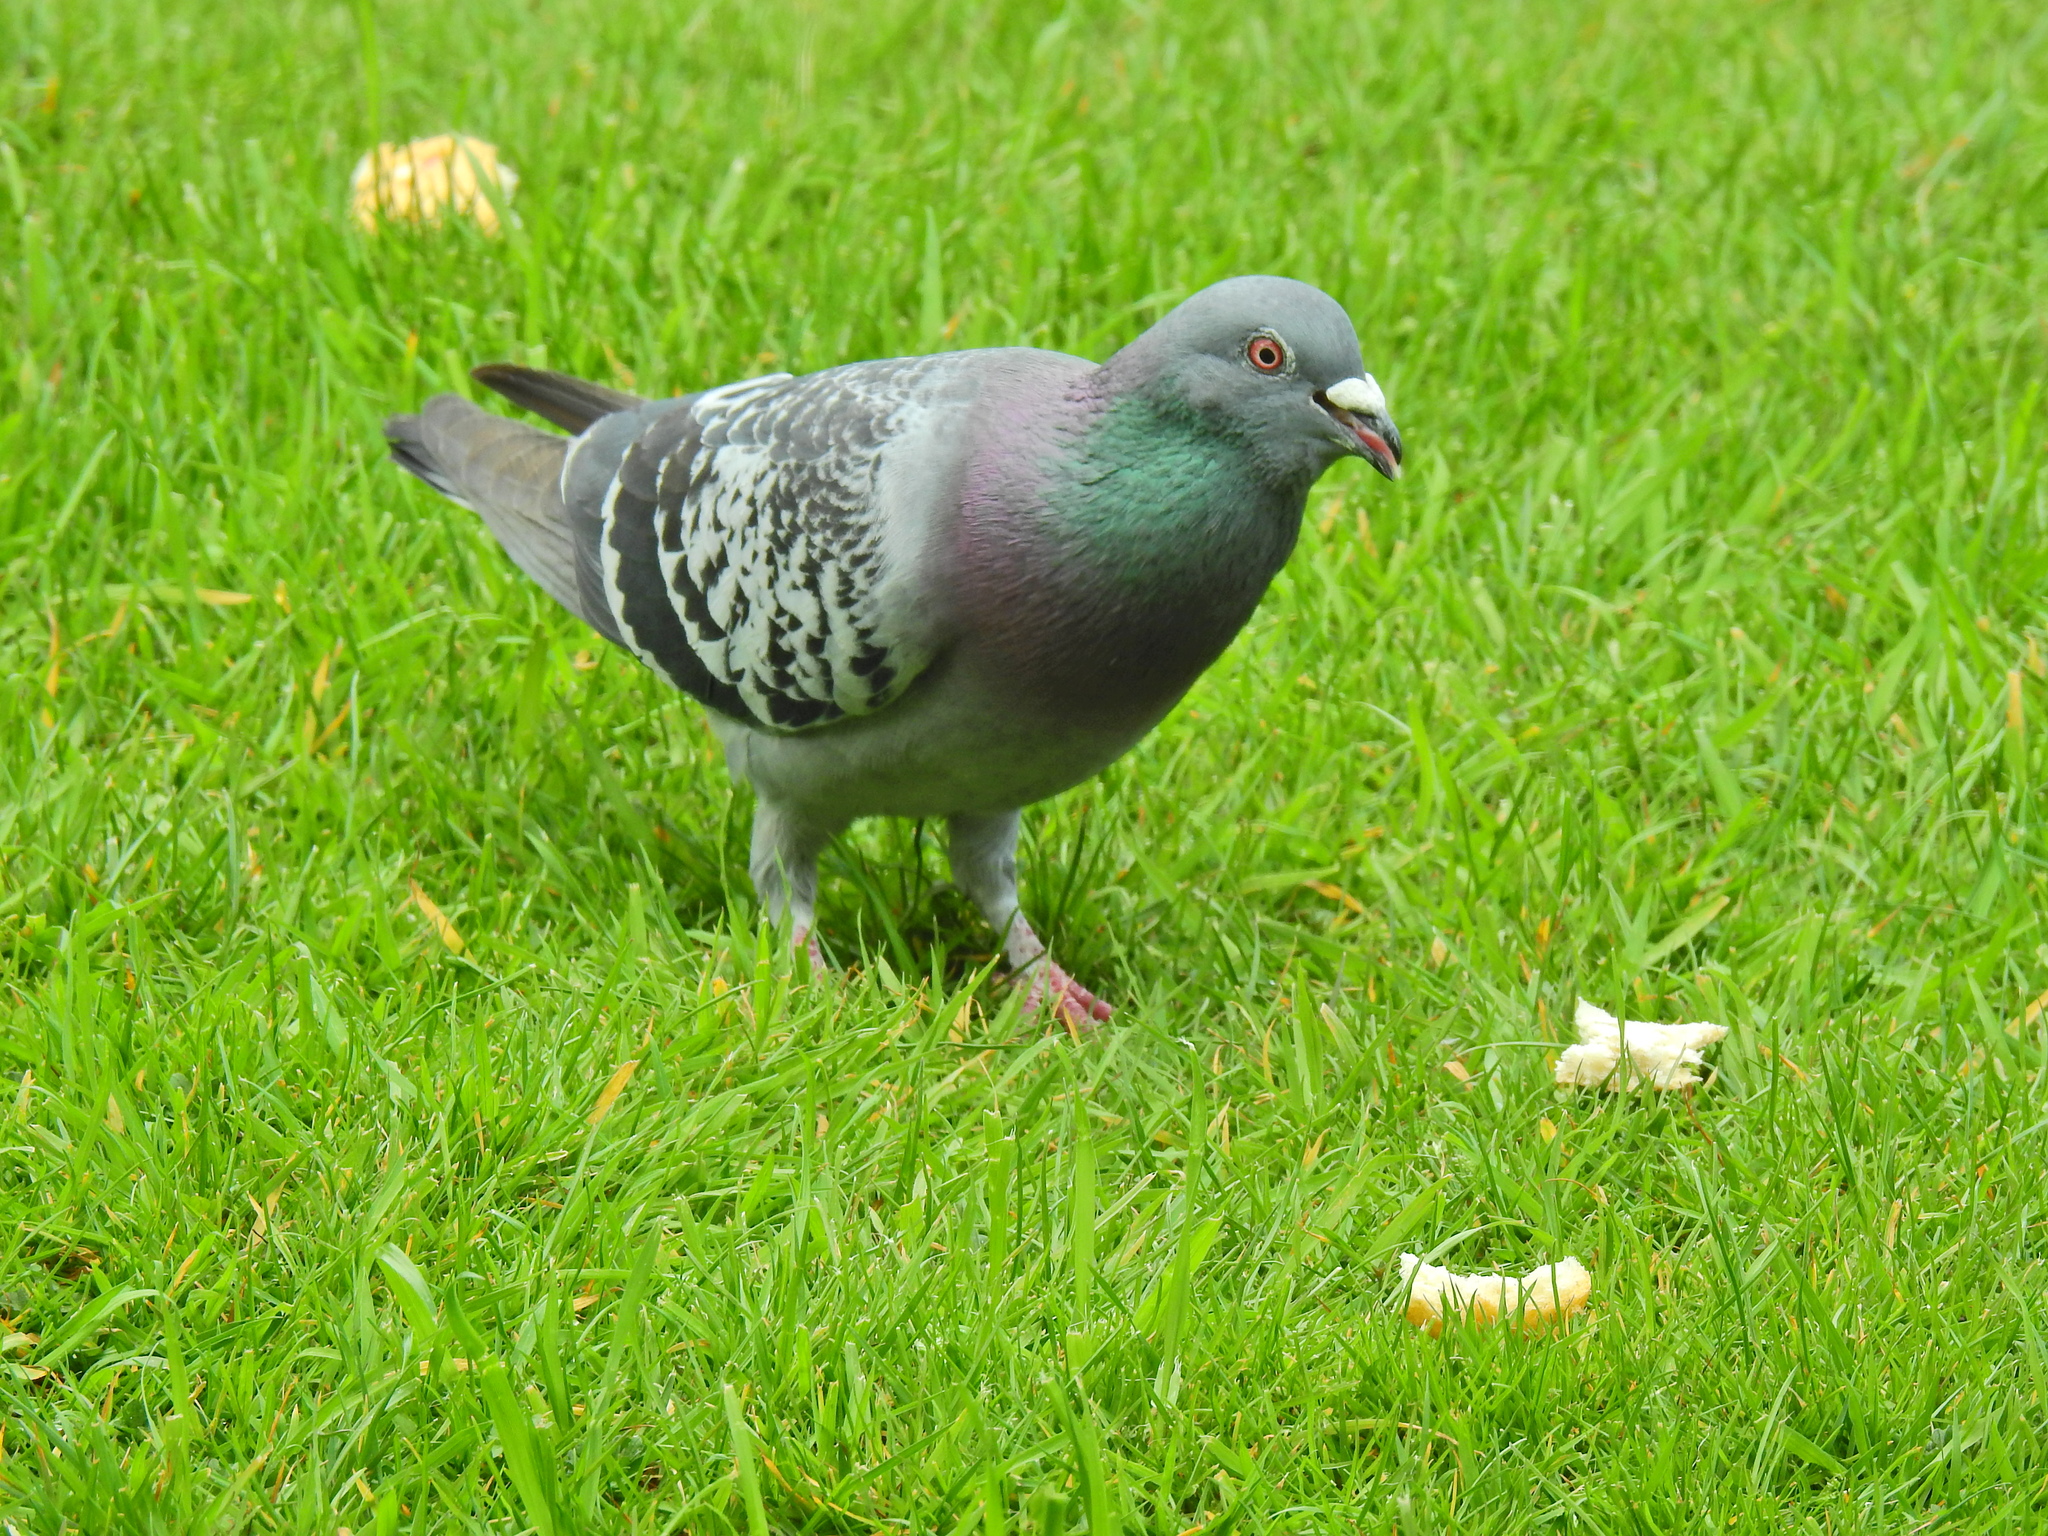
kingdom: Animalia
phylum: Chordata
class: Aves
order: Columbiformes
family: Columbidae
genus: Columba
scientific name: Columba livia
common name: Rock pigeon
